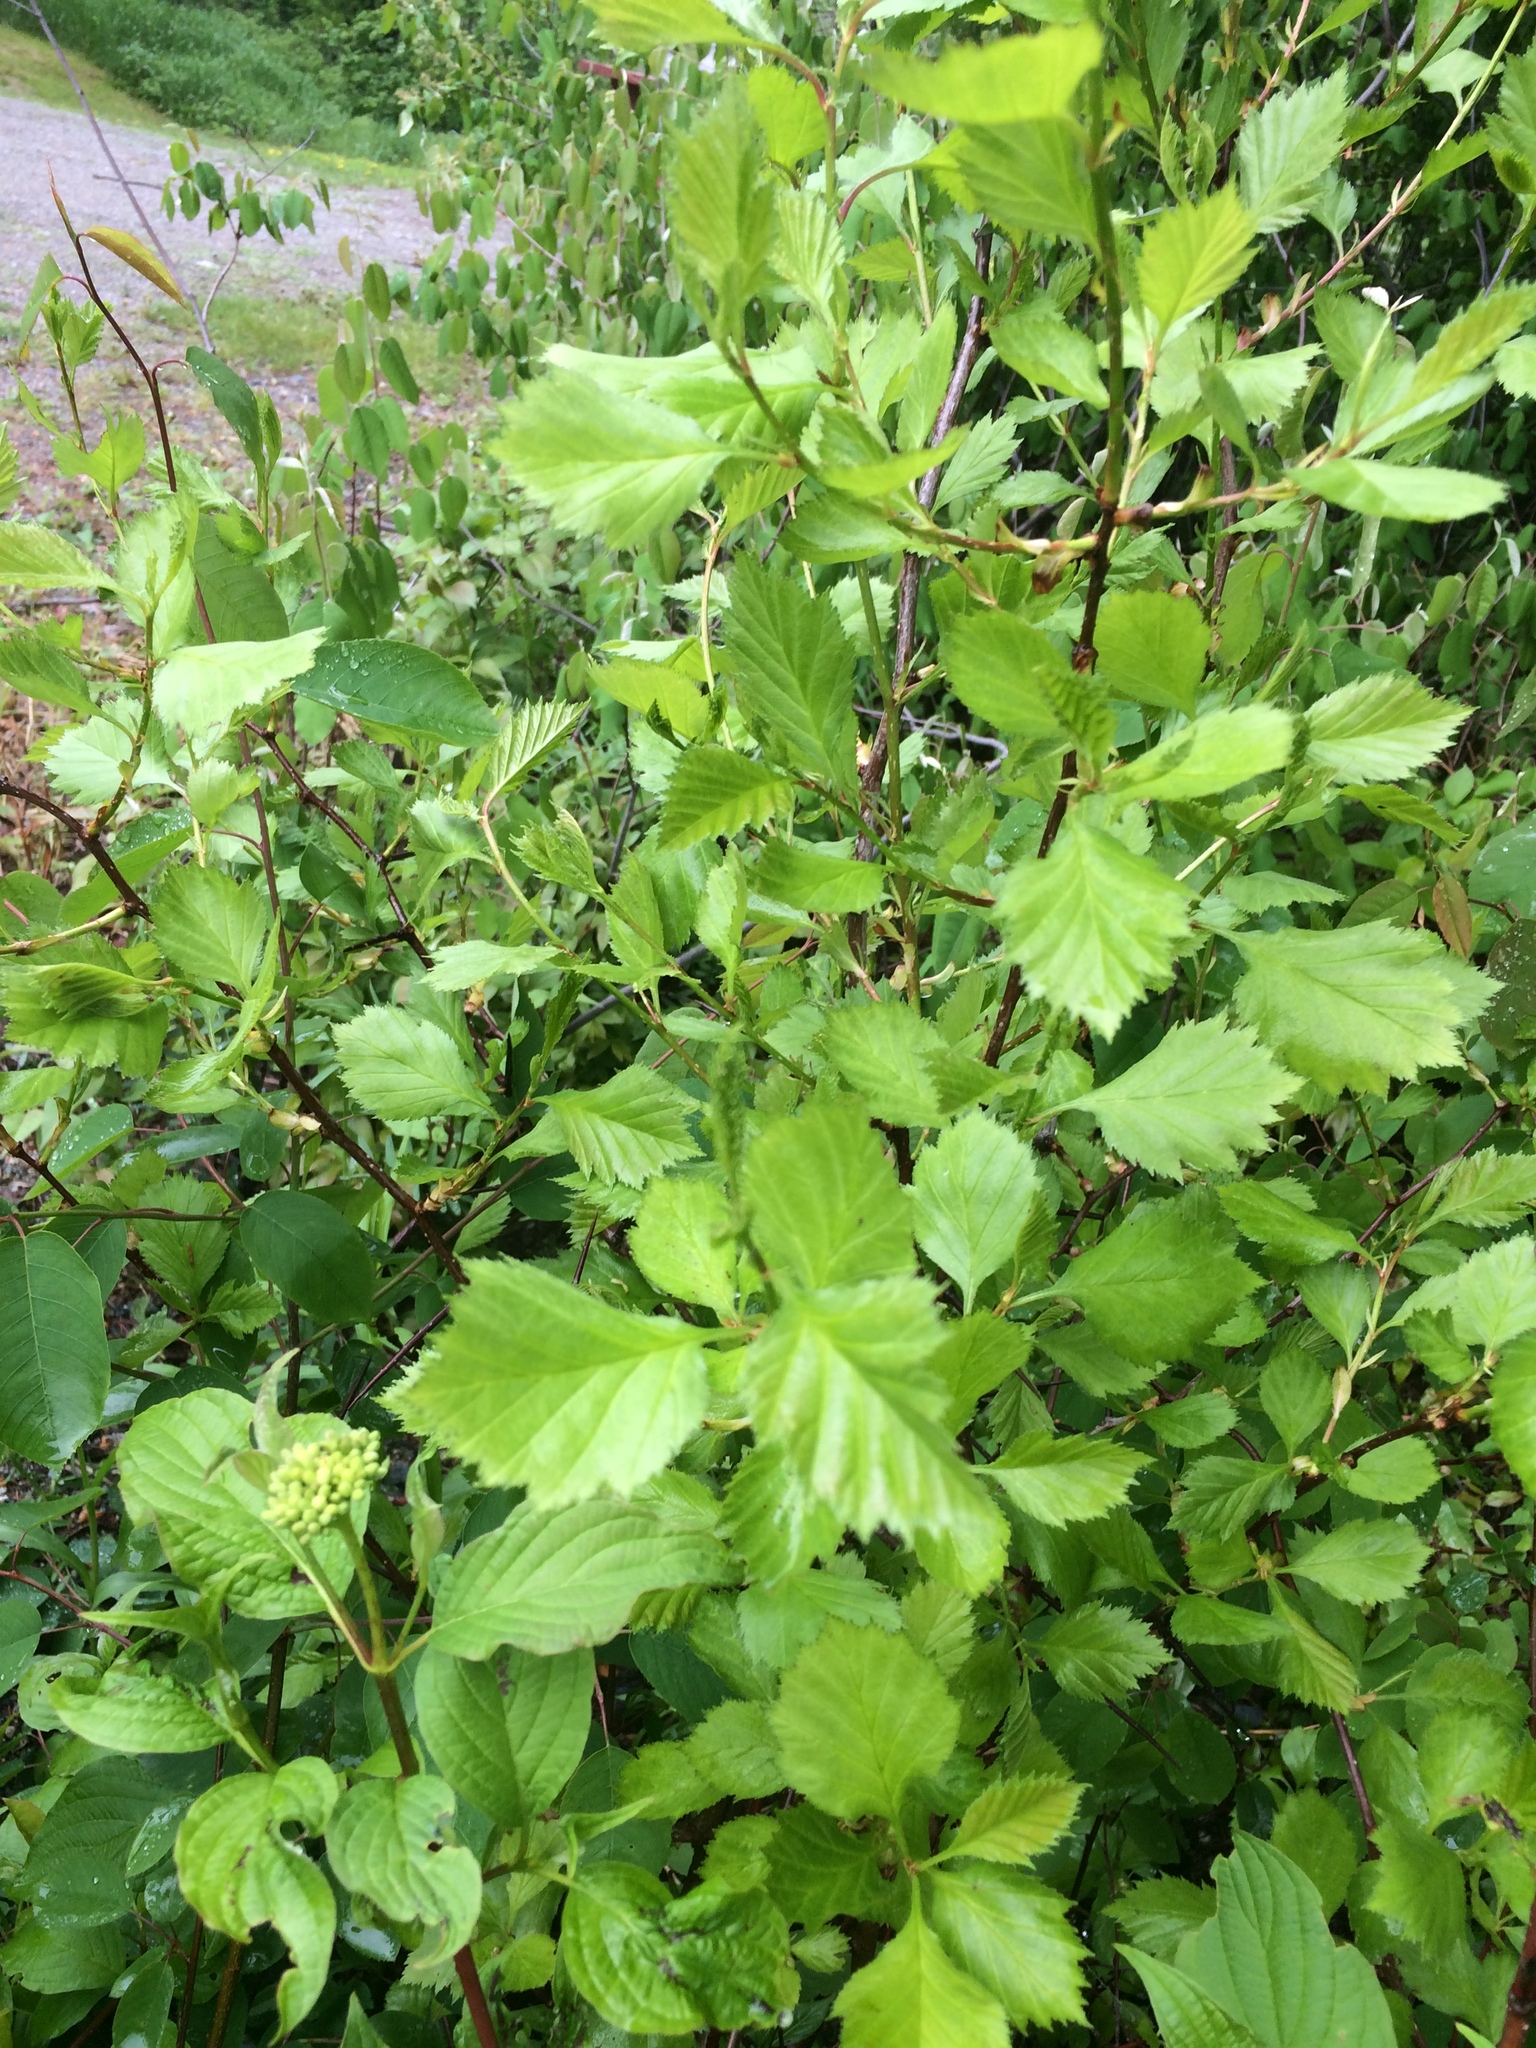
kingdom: Plantae
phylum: Tracheophyta
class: Magnoliopsida
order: Rosales
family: Rosaceae
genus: Crataegus
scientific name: Crataegus chrysocarpa
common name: Fire-berry hawthorn
